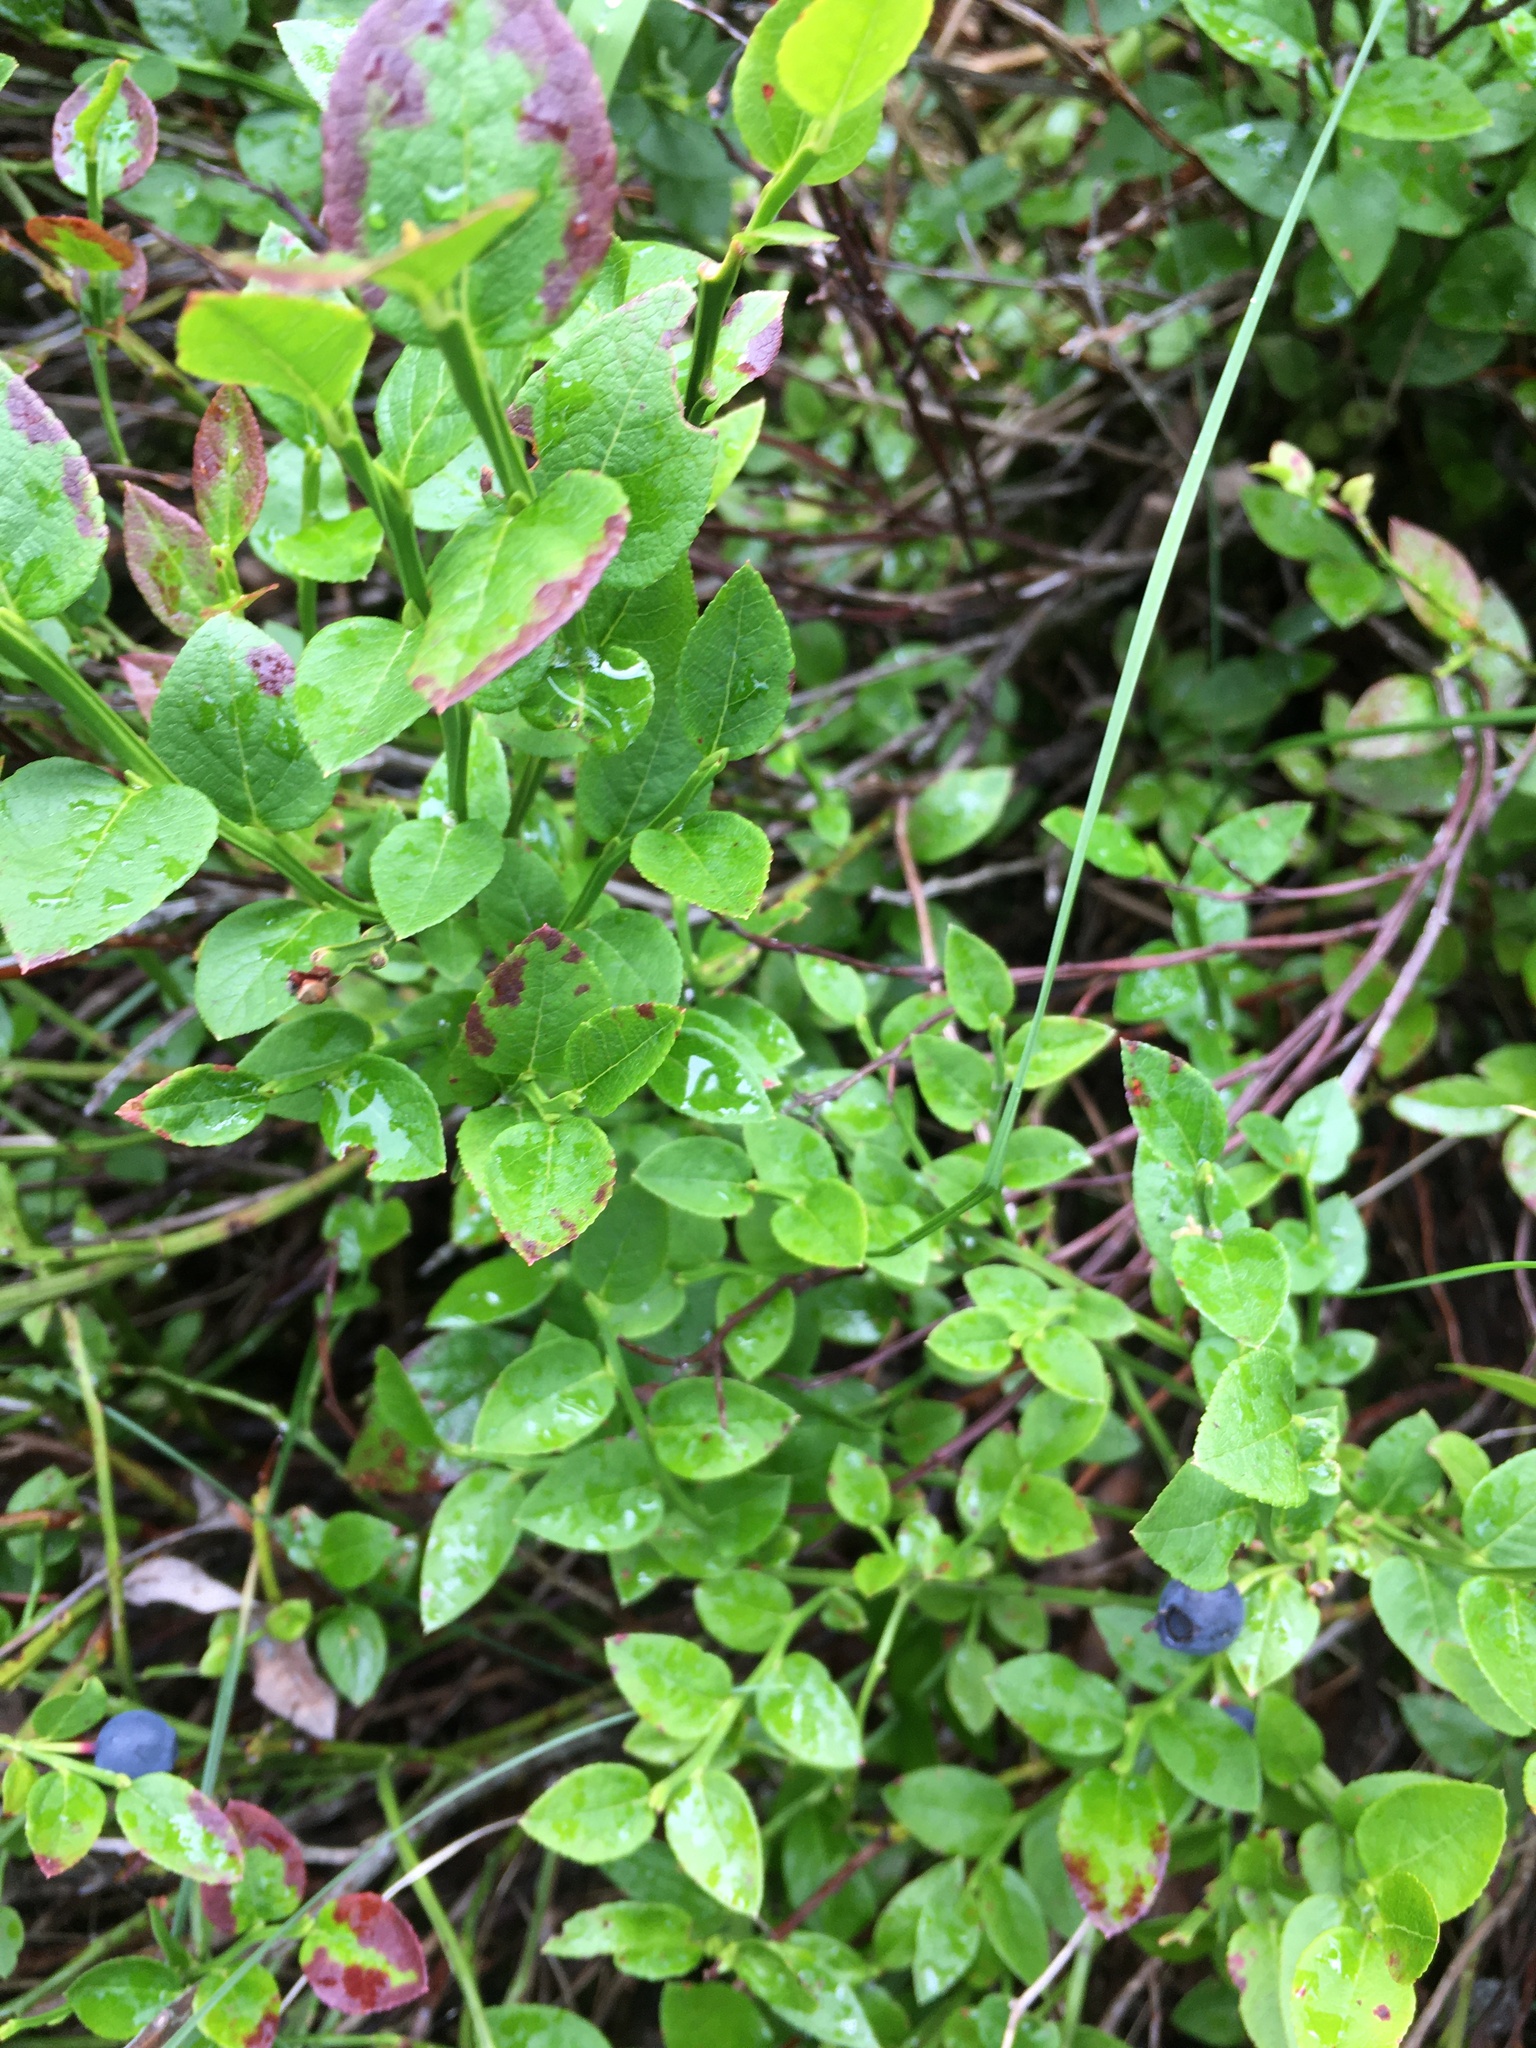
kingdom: Plantae
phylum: Tracheophyta
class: Magnoliopsida
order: Ericales
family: Ericaceae
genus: Vaccinium
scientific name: Vaccinium myrtillus
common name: Bilberry
